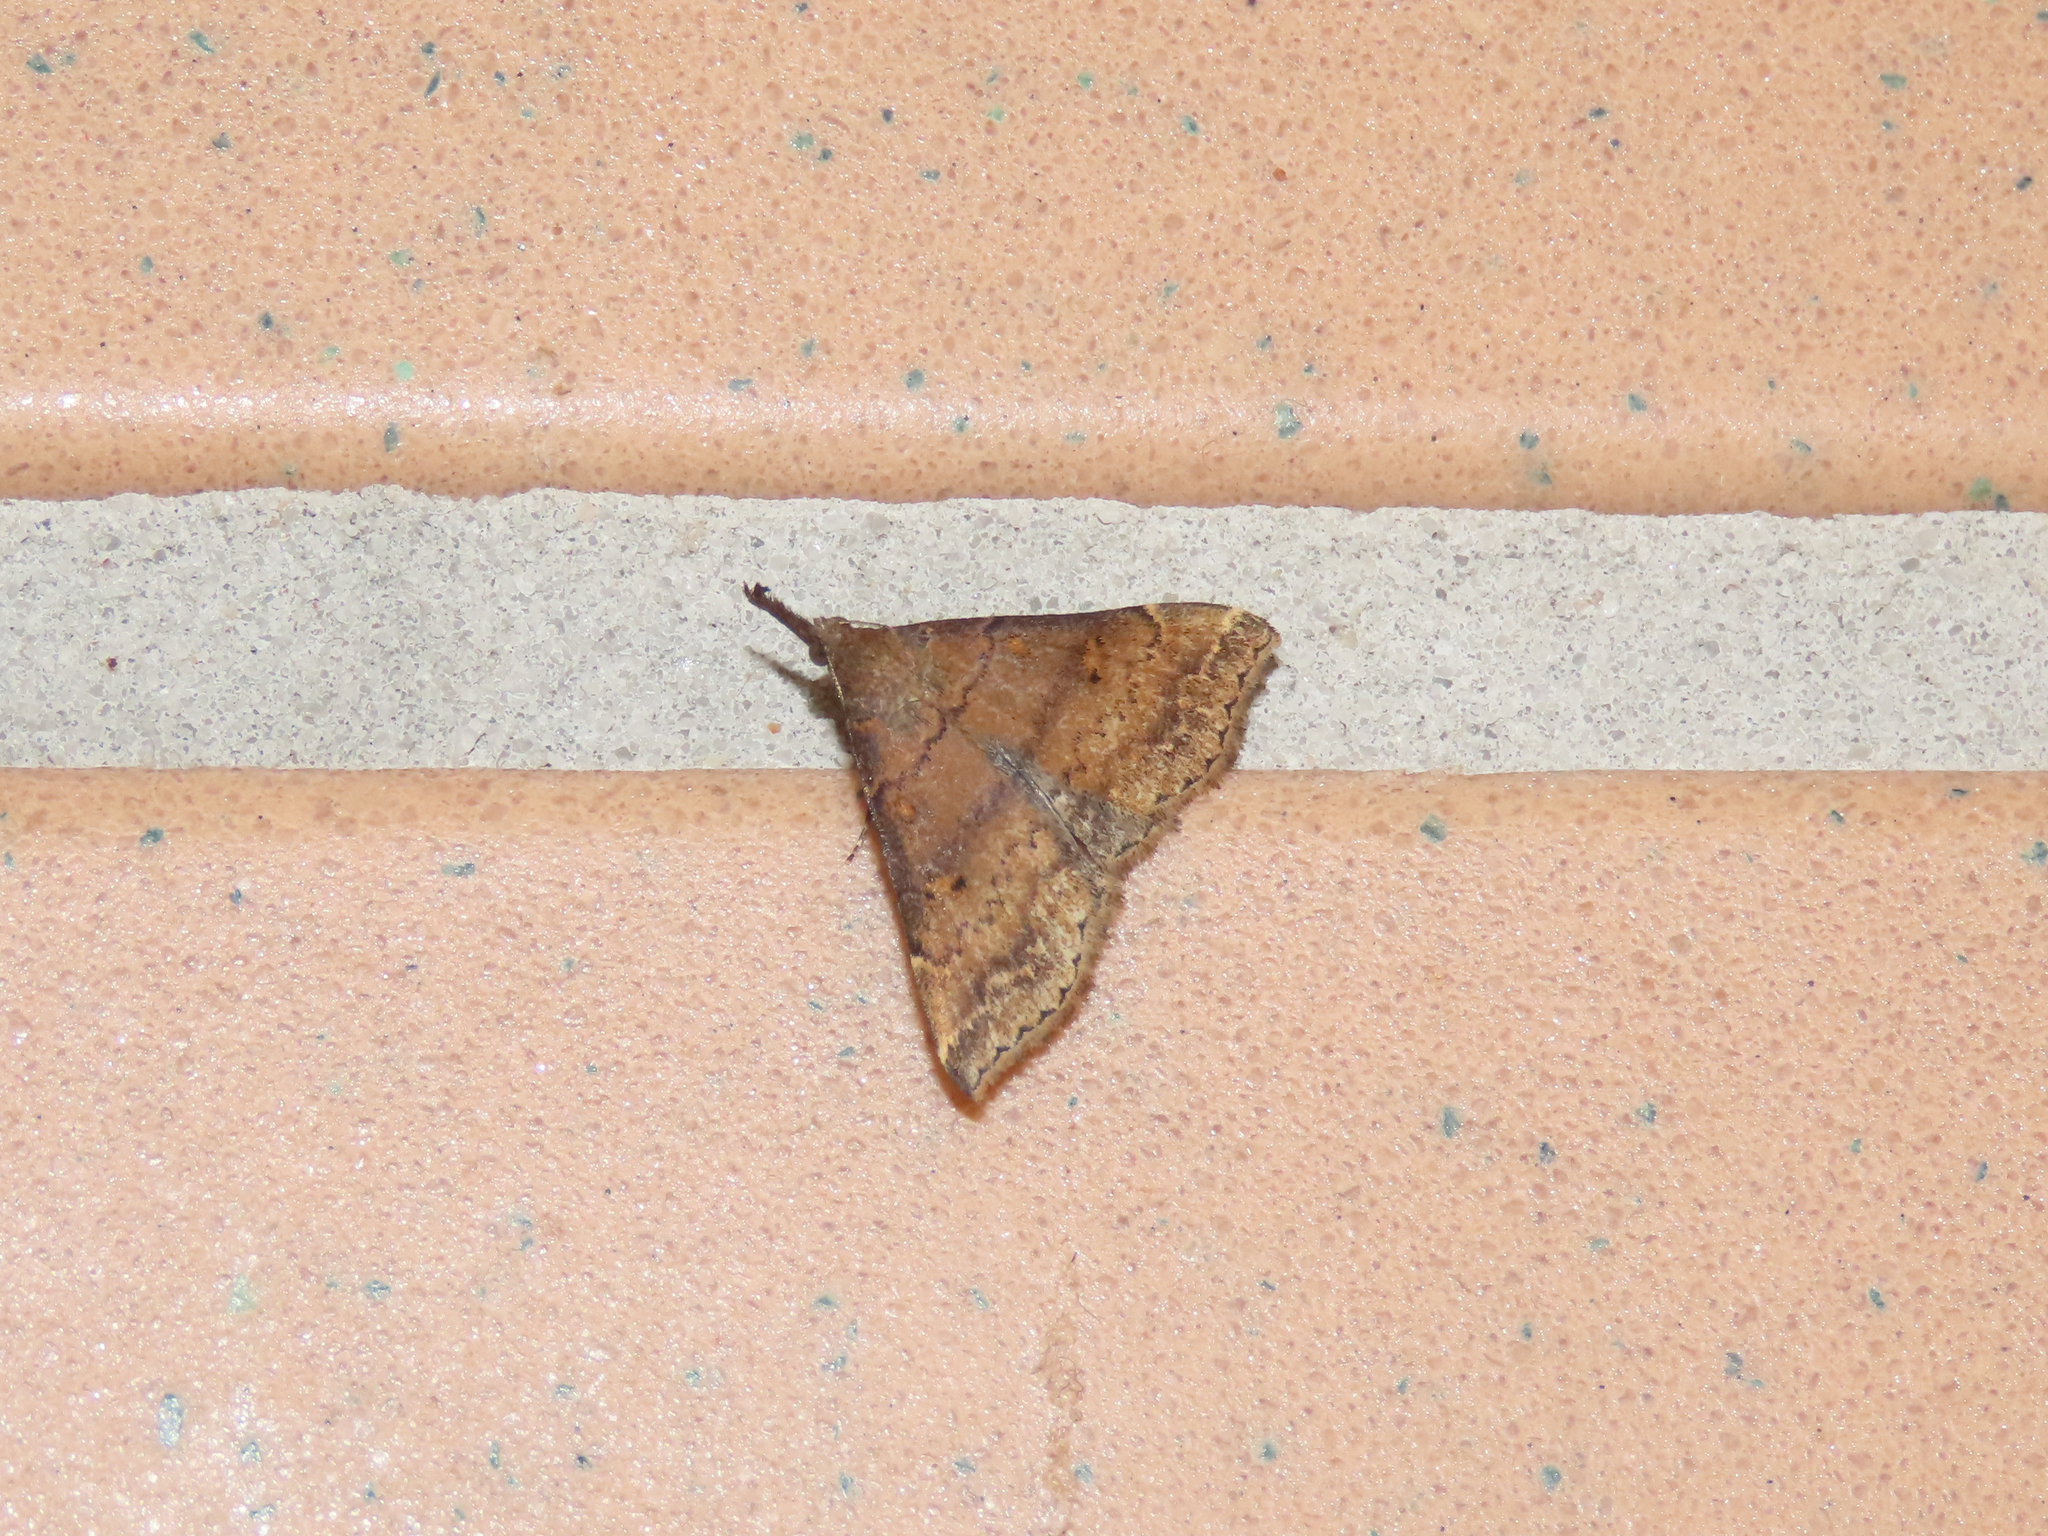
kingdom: Animalia
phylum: Arthropoda
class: Insecta
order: Lepidoptera
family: Erebidae
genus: Renia
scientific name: Renia factiosalis
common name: Sociable renia moth
